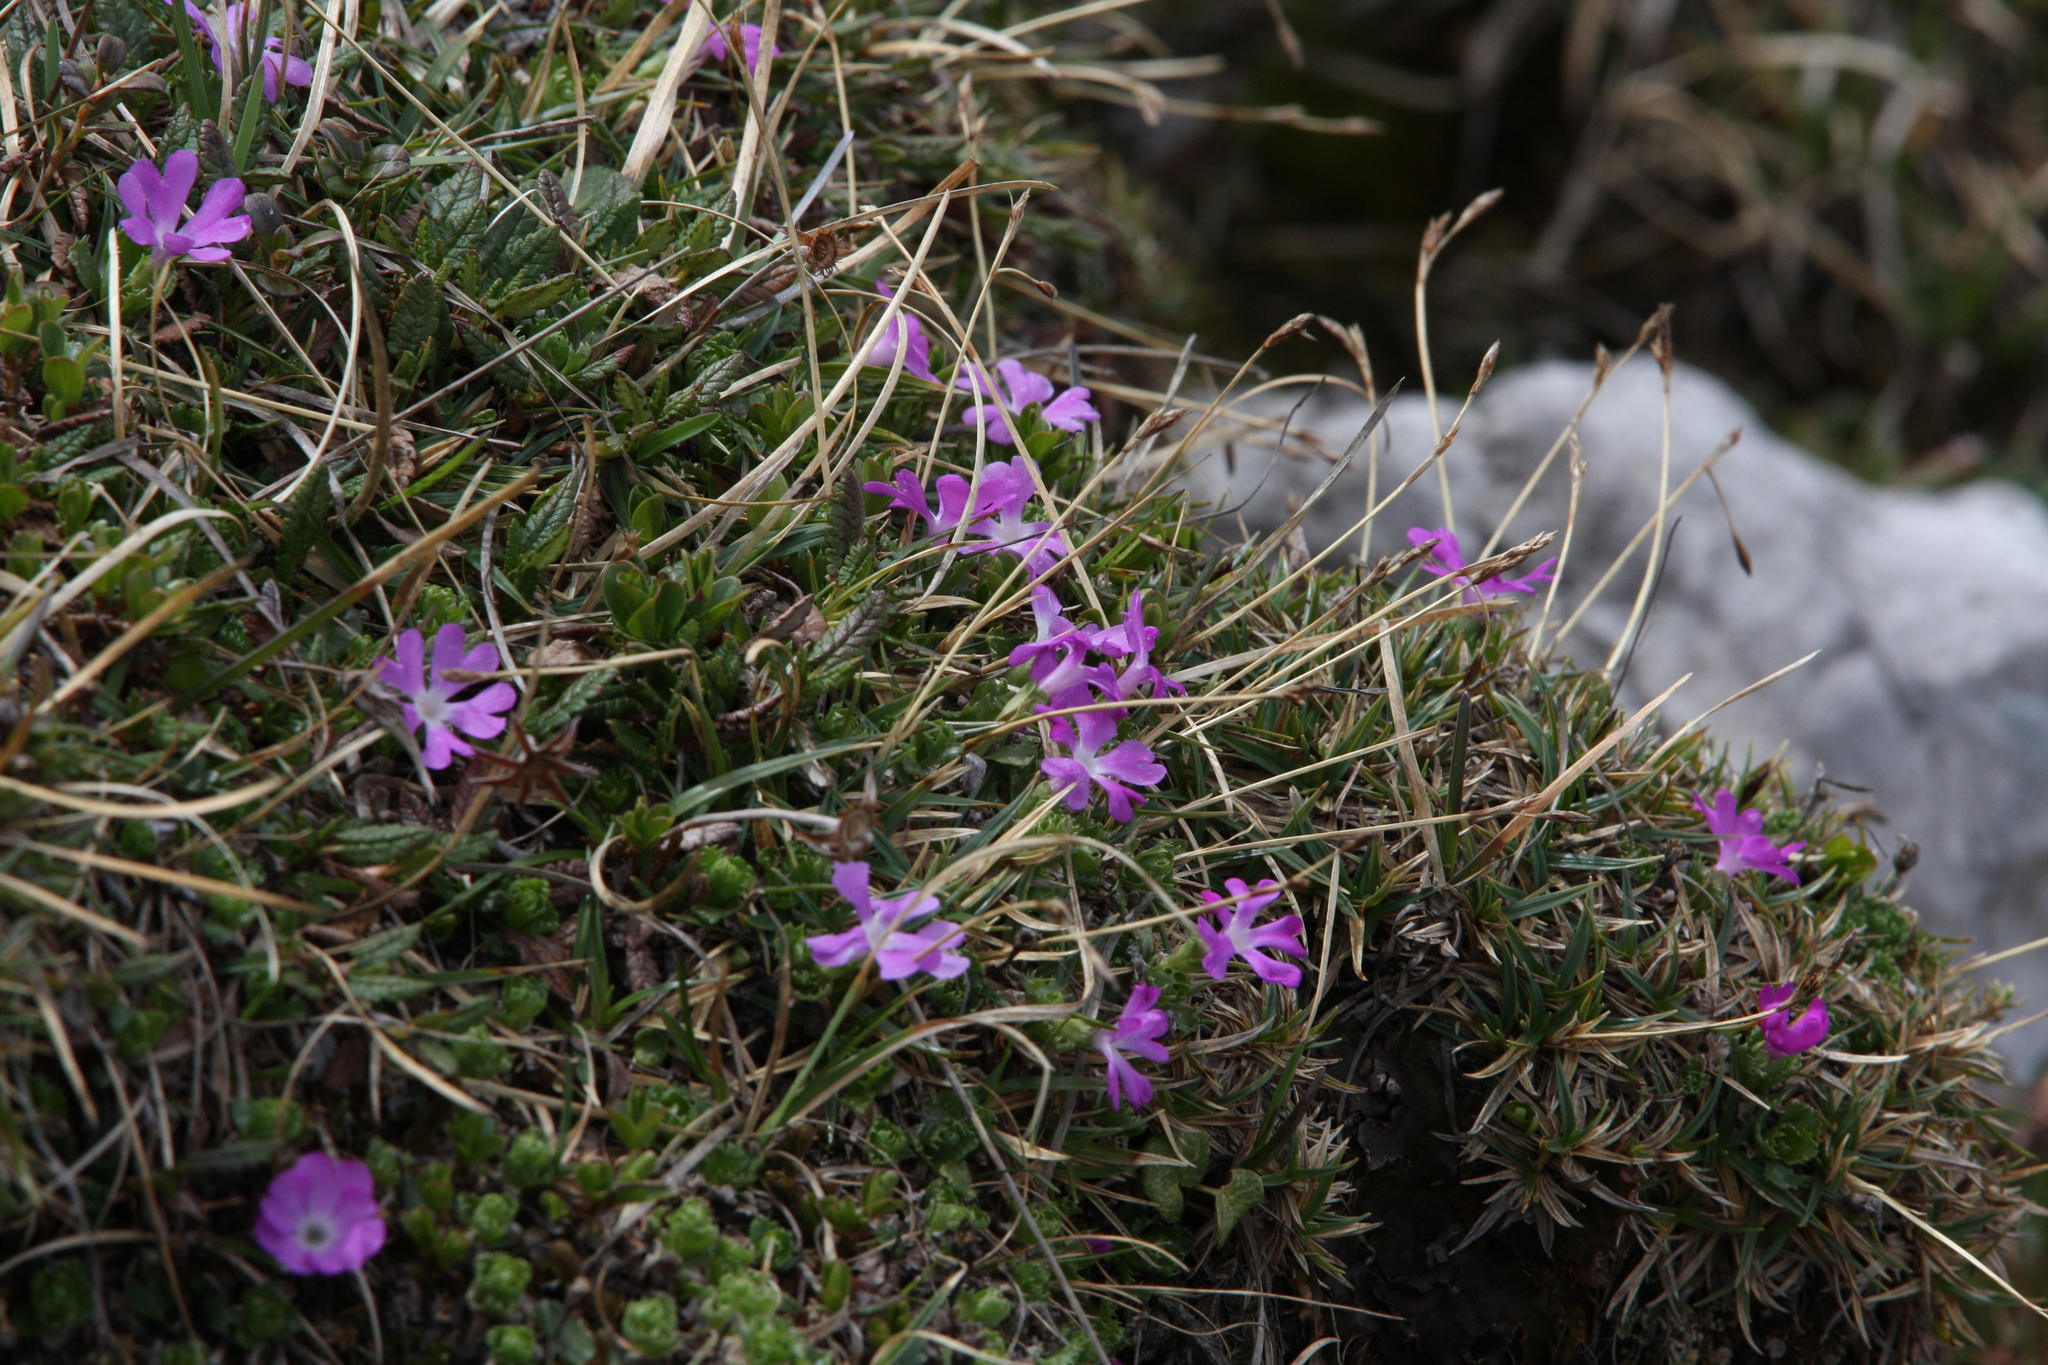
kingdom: Plantae
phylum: Tracheophyta
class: Magnoliopsida
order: Ericales
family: Primulaceae
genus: Primula
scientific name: Primula minima
